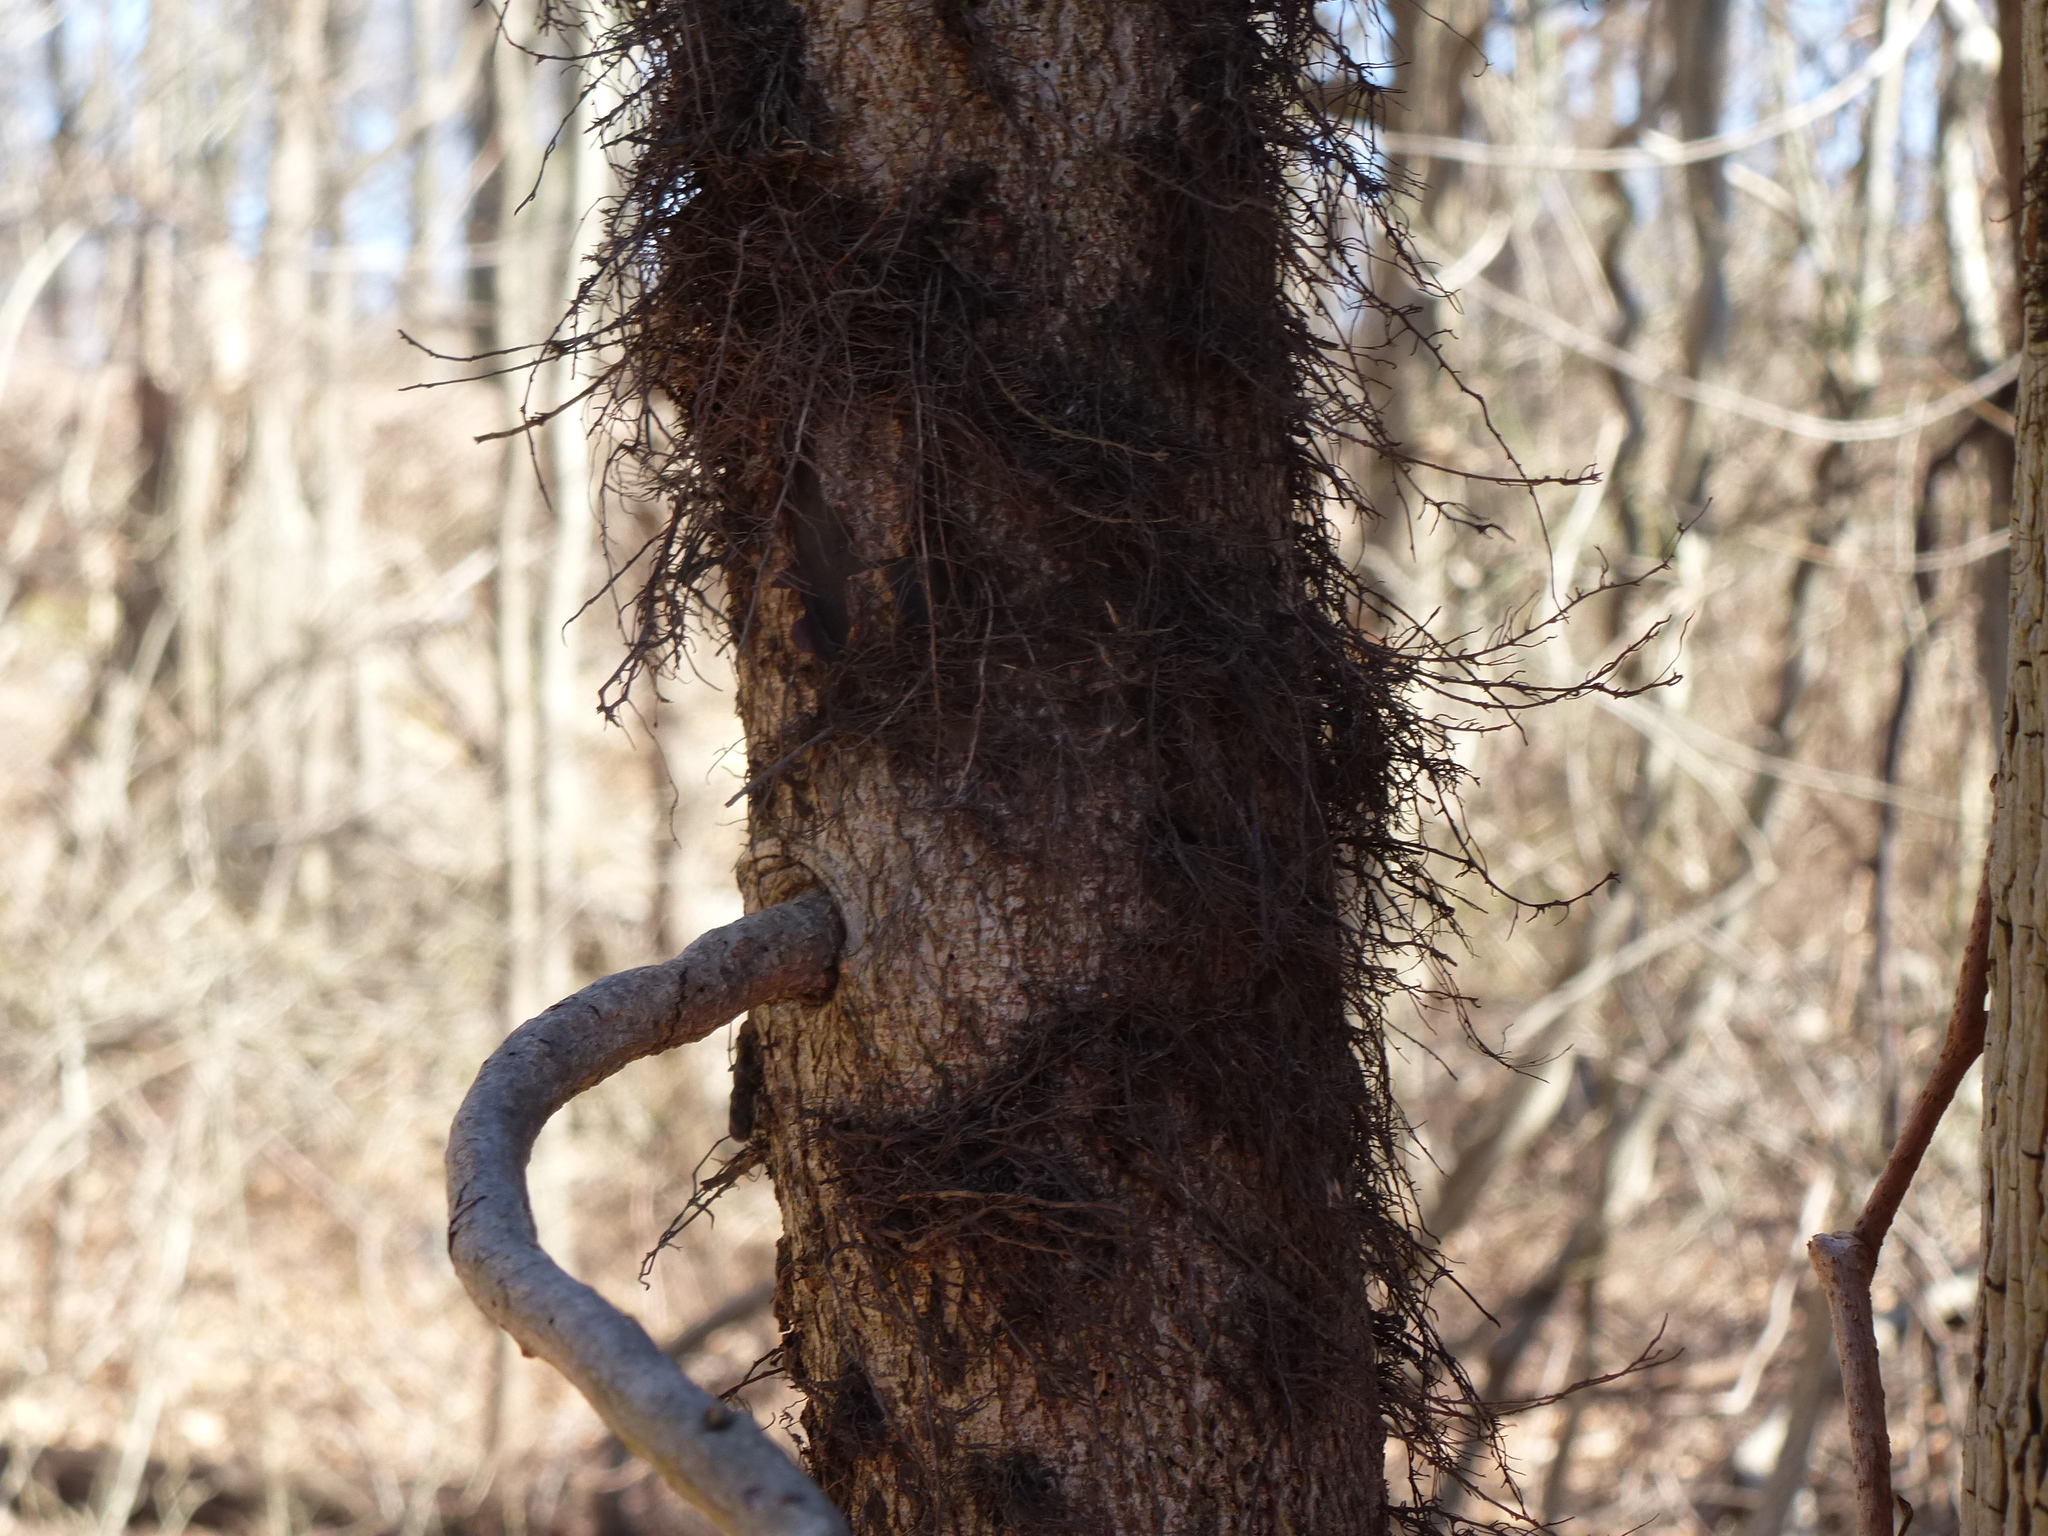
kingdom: Plantae
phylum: Tracheophyta
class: Magnoliopsida
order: Sapindales
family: Anacardiaceae
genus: Toxicodendron
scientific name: Toxicodendron radicans
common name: Poison ivy
